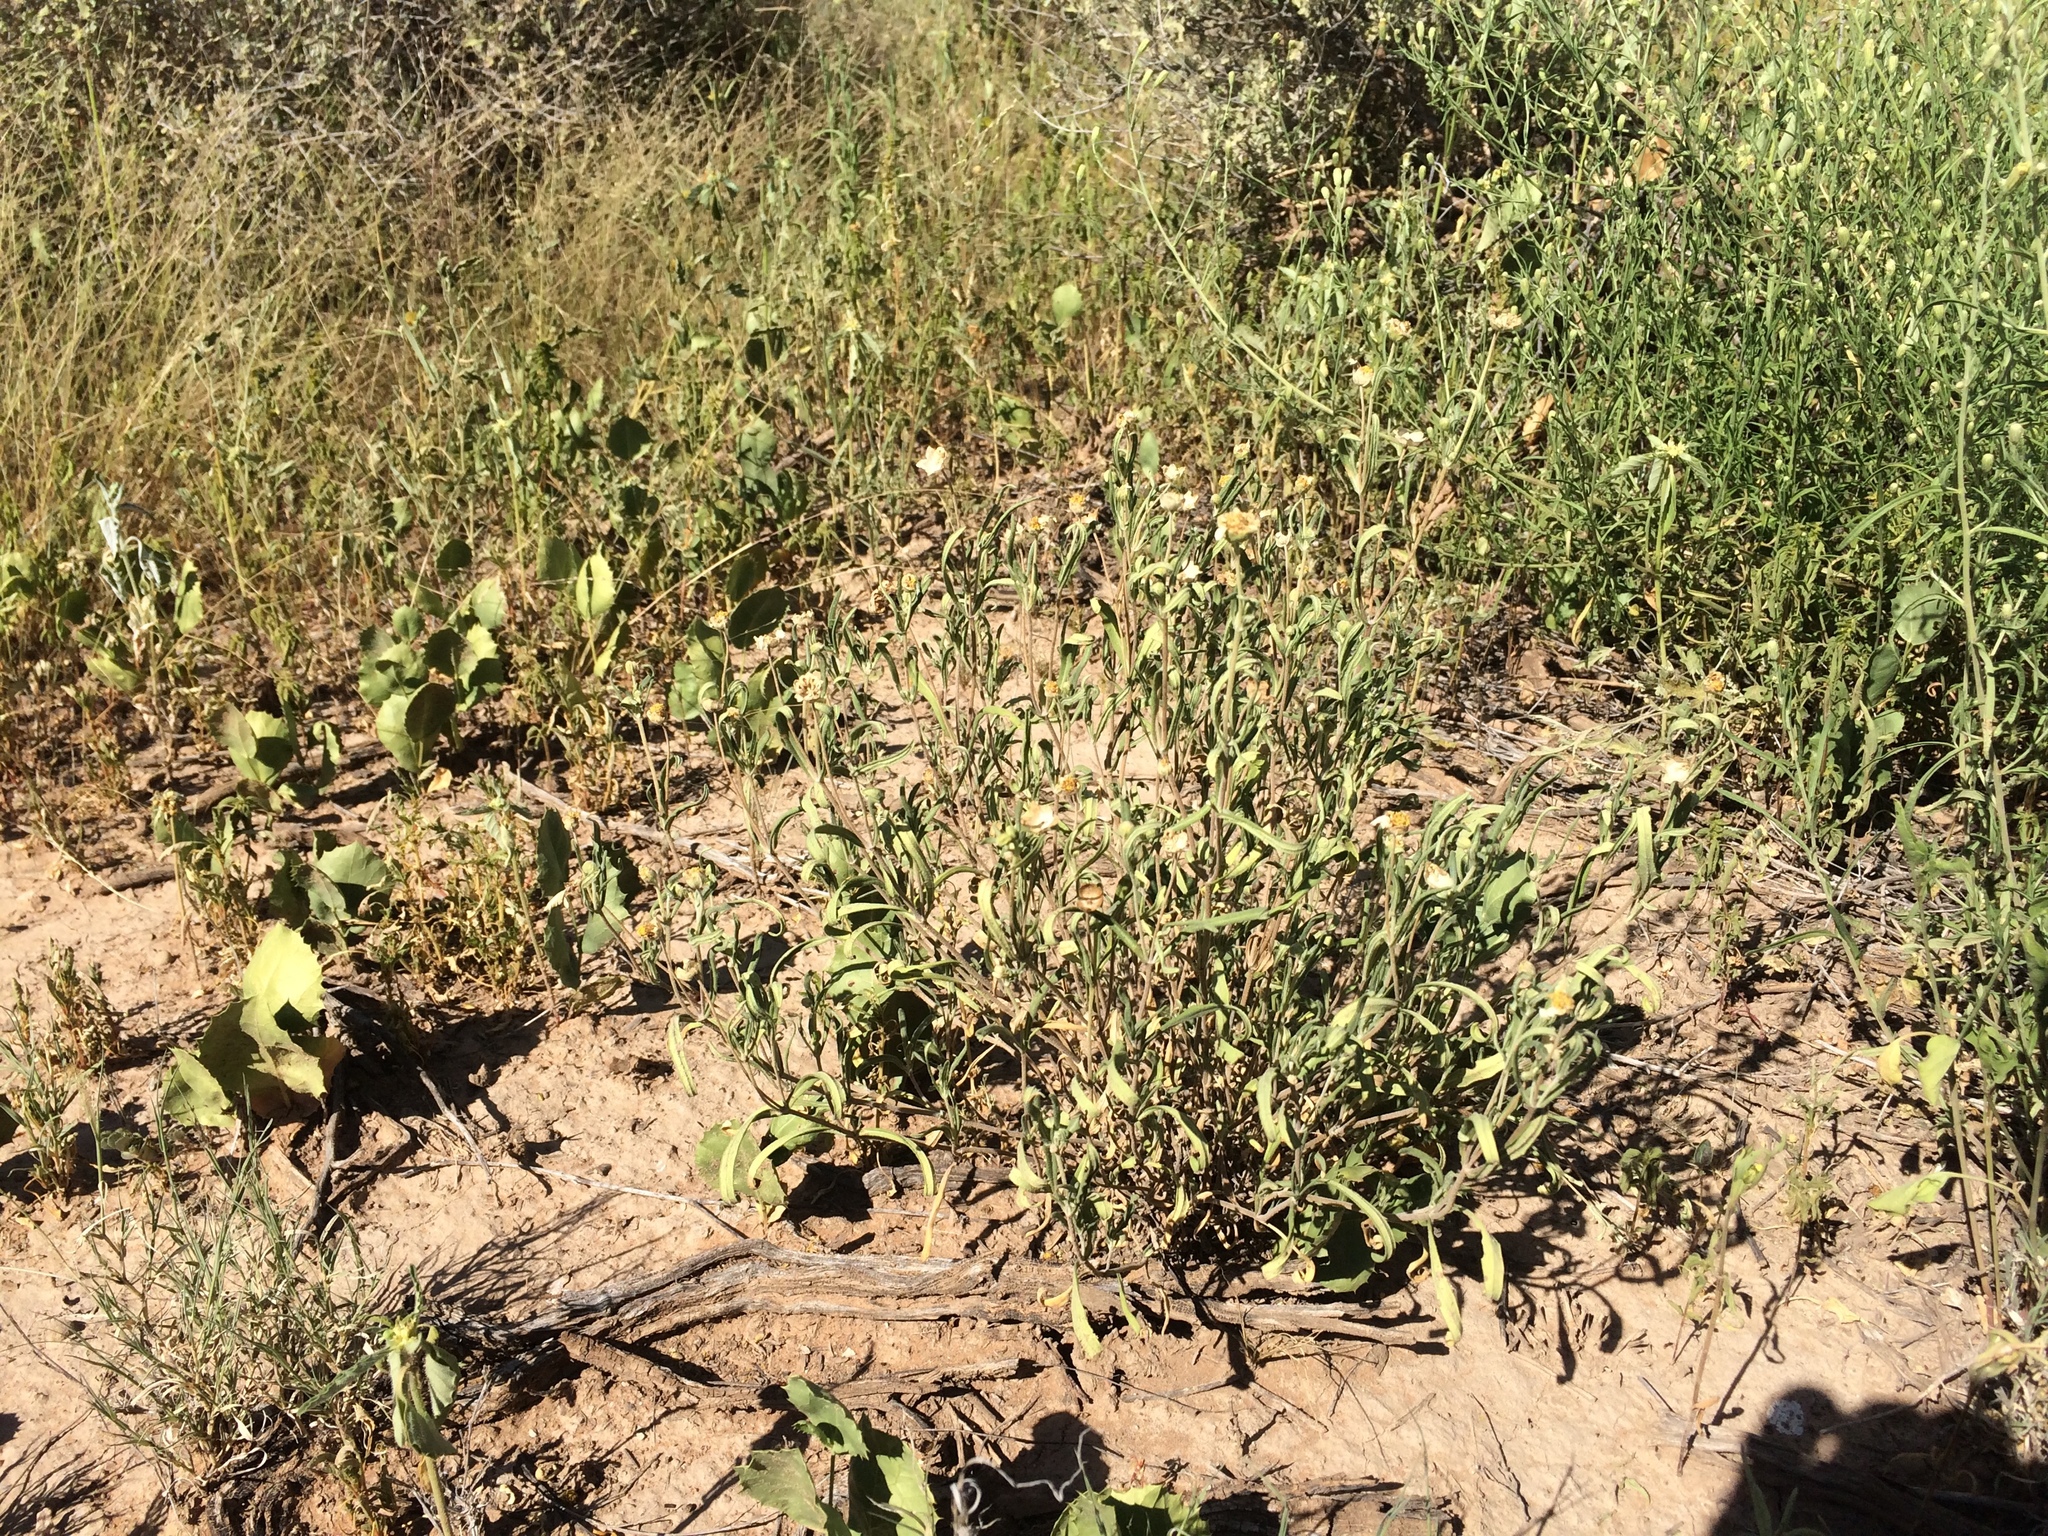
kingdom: Plantae
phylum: Tracheophyta
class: Magnoliopsida
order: Asterales
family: Asteraceae
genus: Melampodium
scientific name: Melampodium leucanthum
